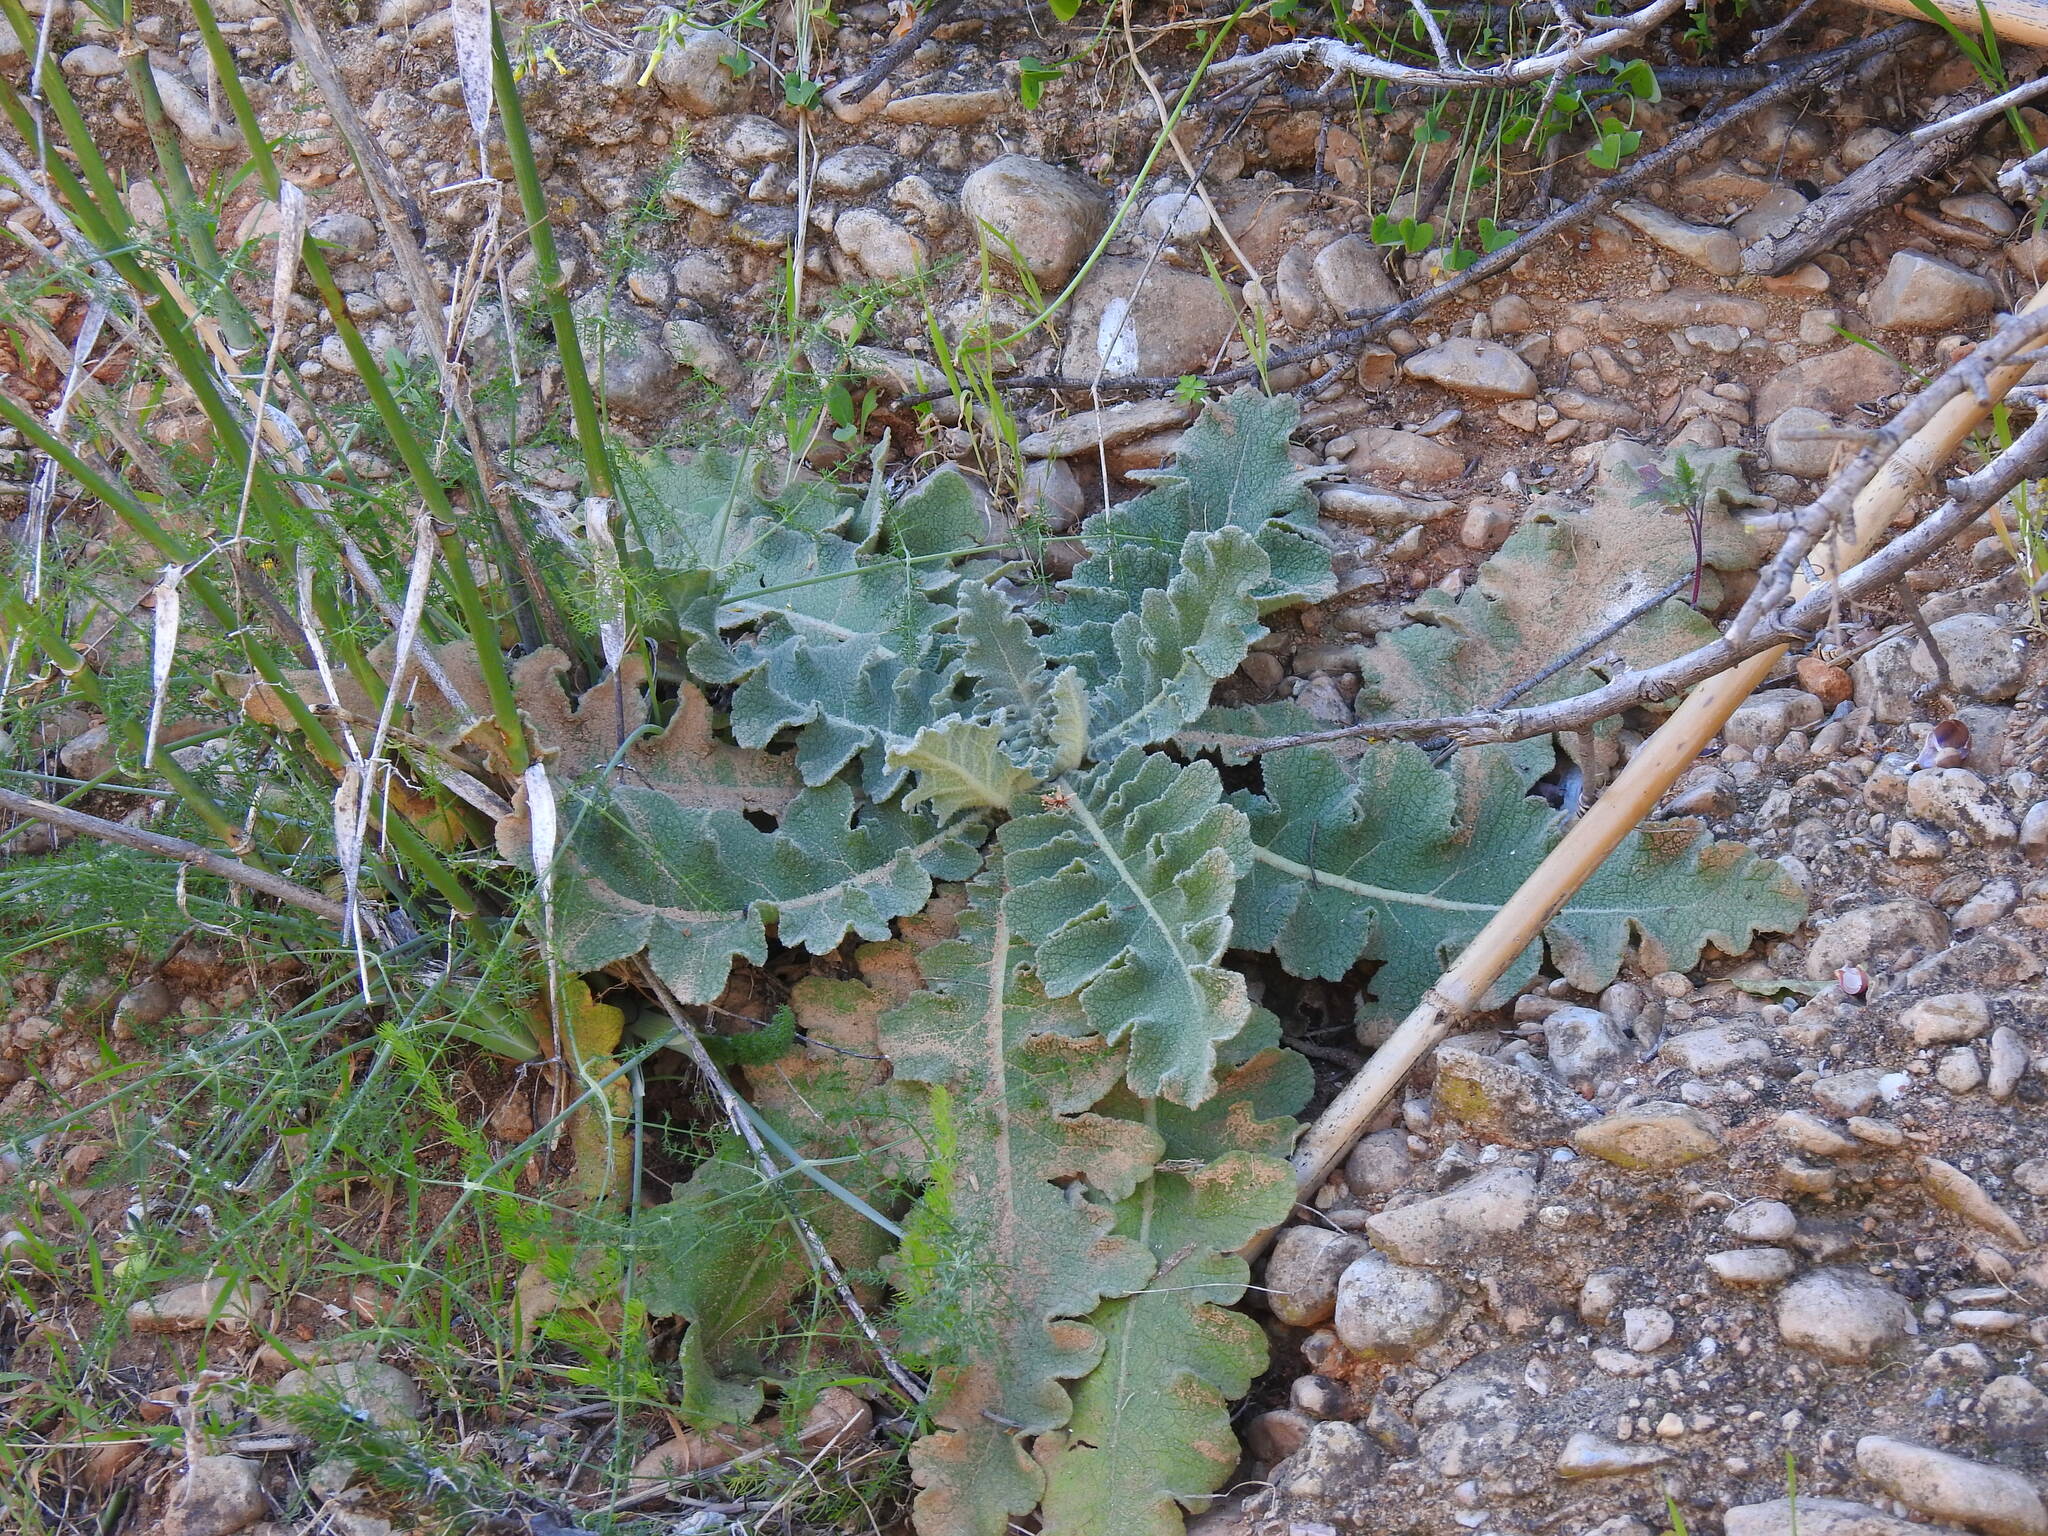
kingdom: Plantae
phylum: Tracheophyta
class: Magnoliopsida
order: Lamiales
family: Scrophulariaceae
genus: Verbascum
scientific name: Verbascum sinuatum
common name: Wavyleaf mullein
